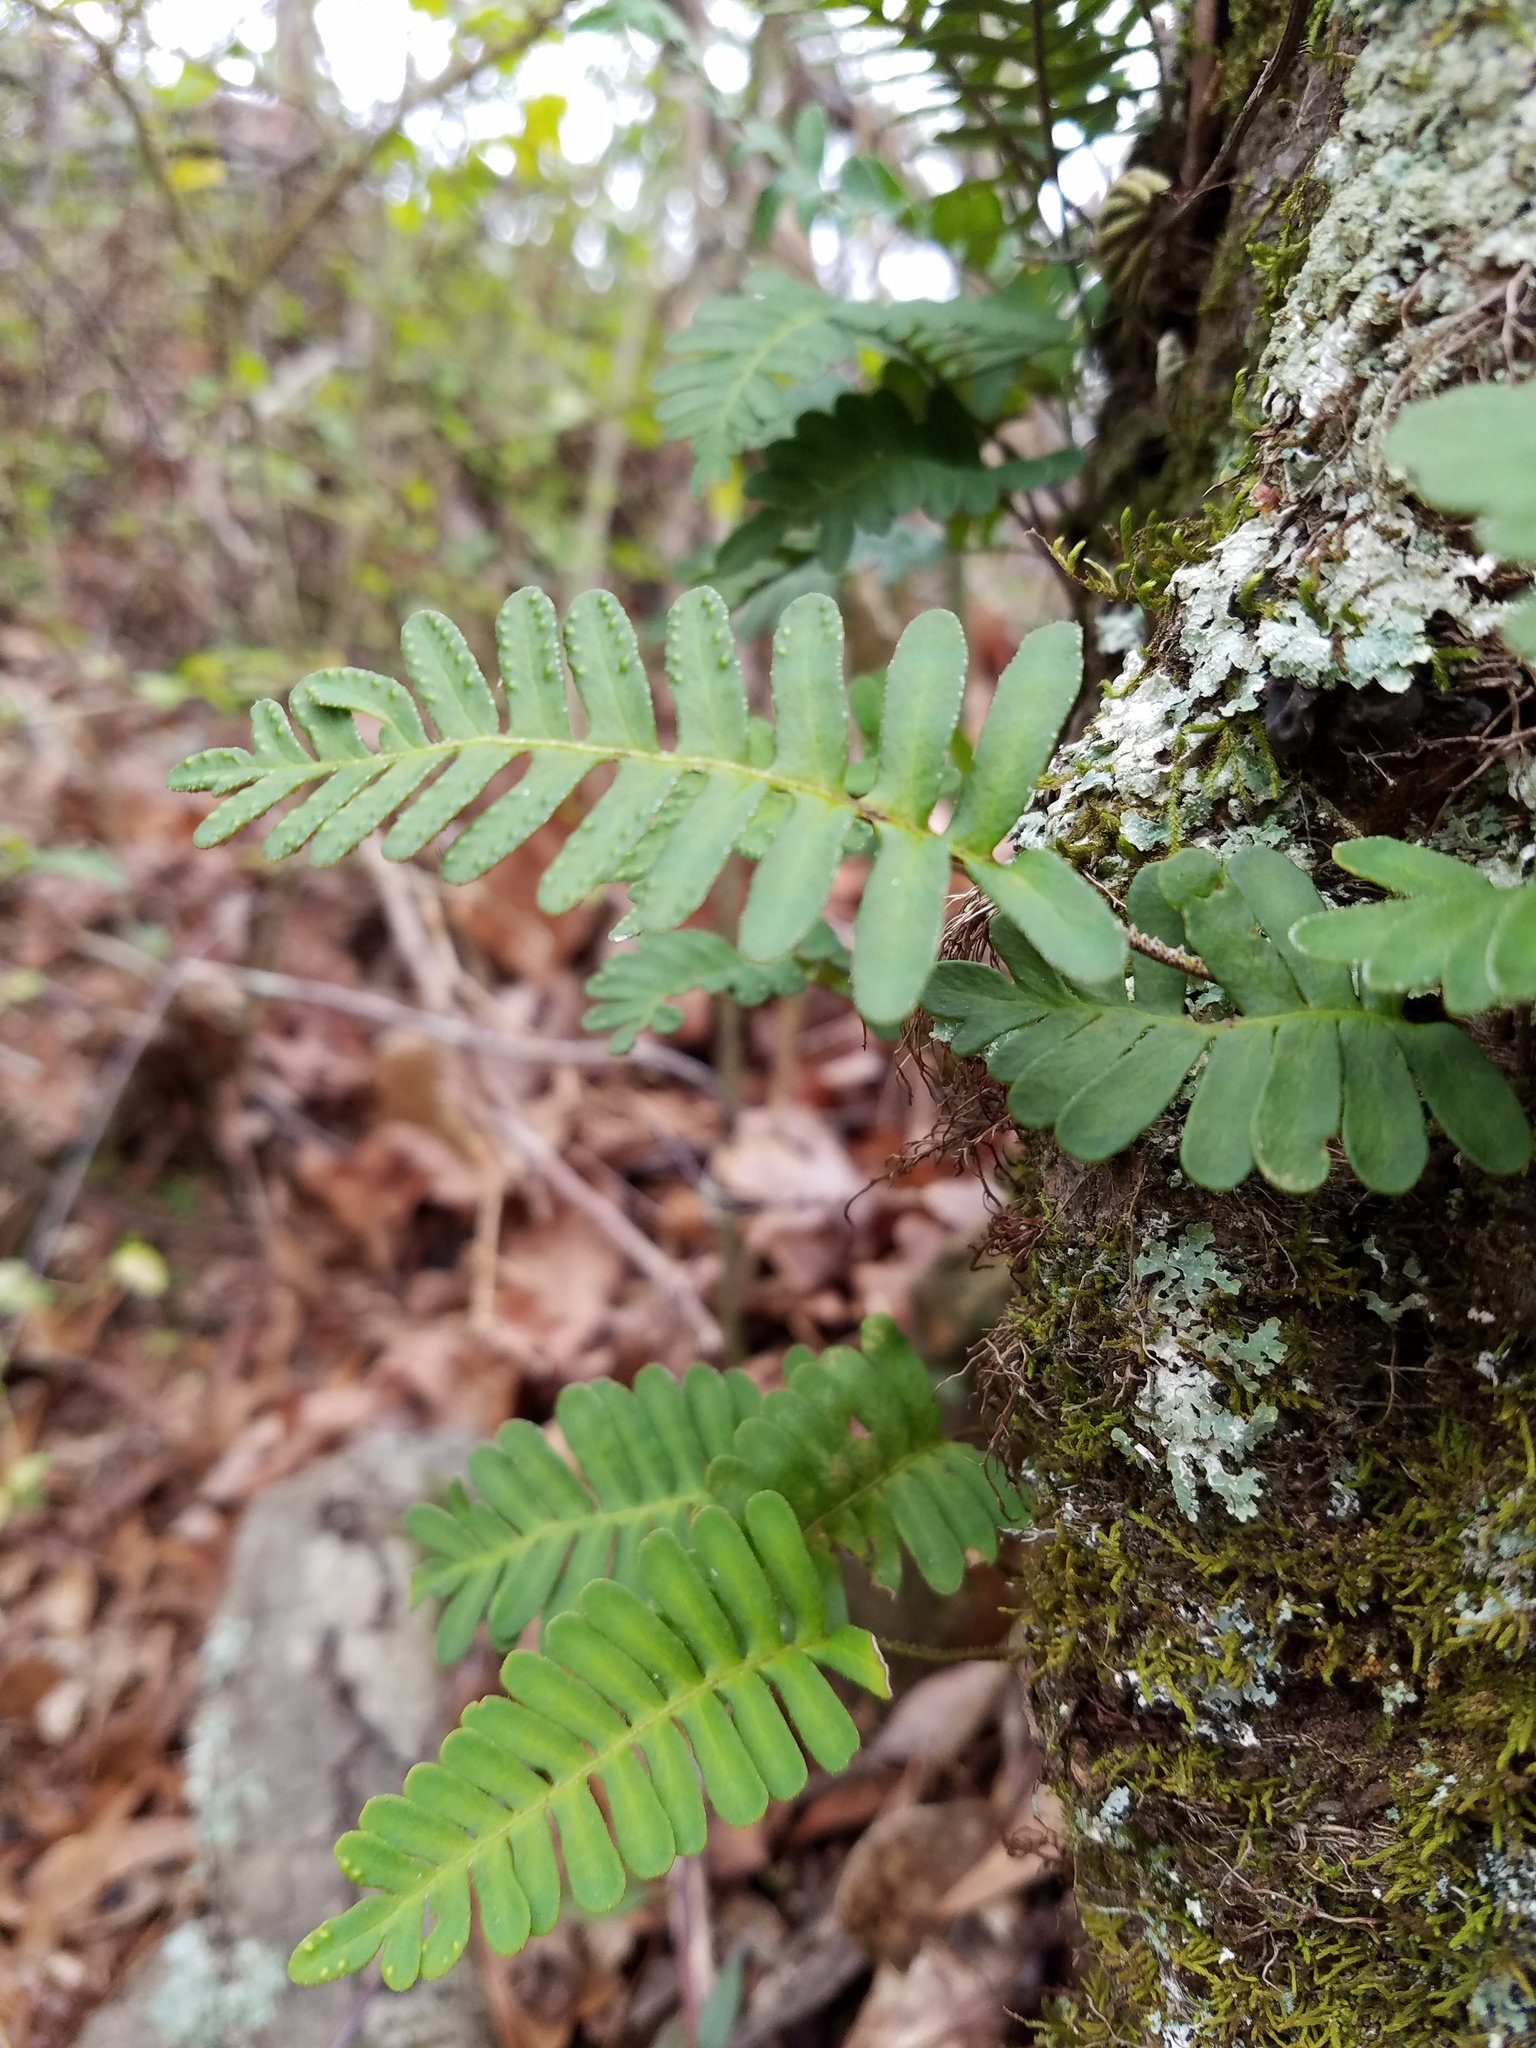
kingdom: Plantae
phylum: Tracheophyta
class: Polypodiopsida
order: Polypodiales
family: Polypodiaceae
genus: Pleopeltis
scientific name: Pleopeltis michauxiana
